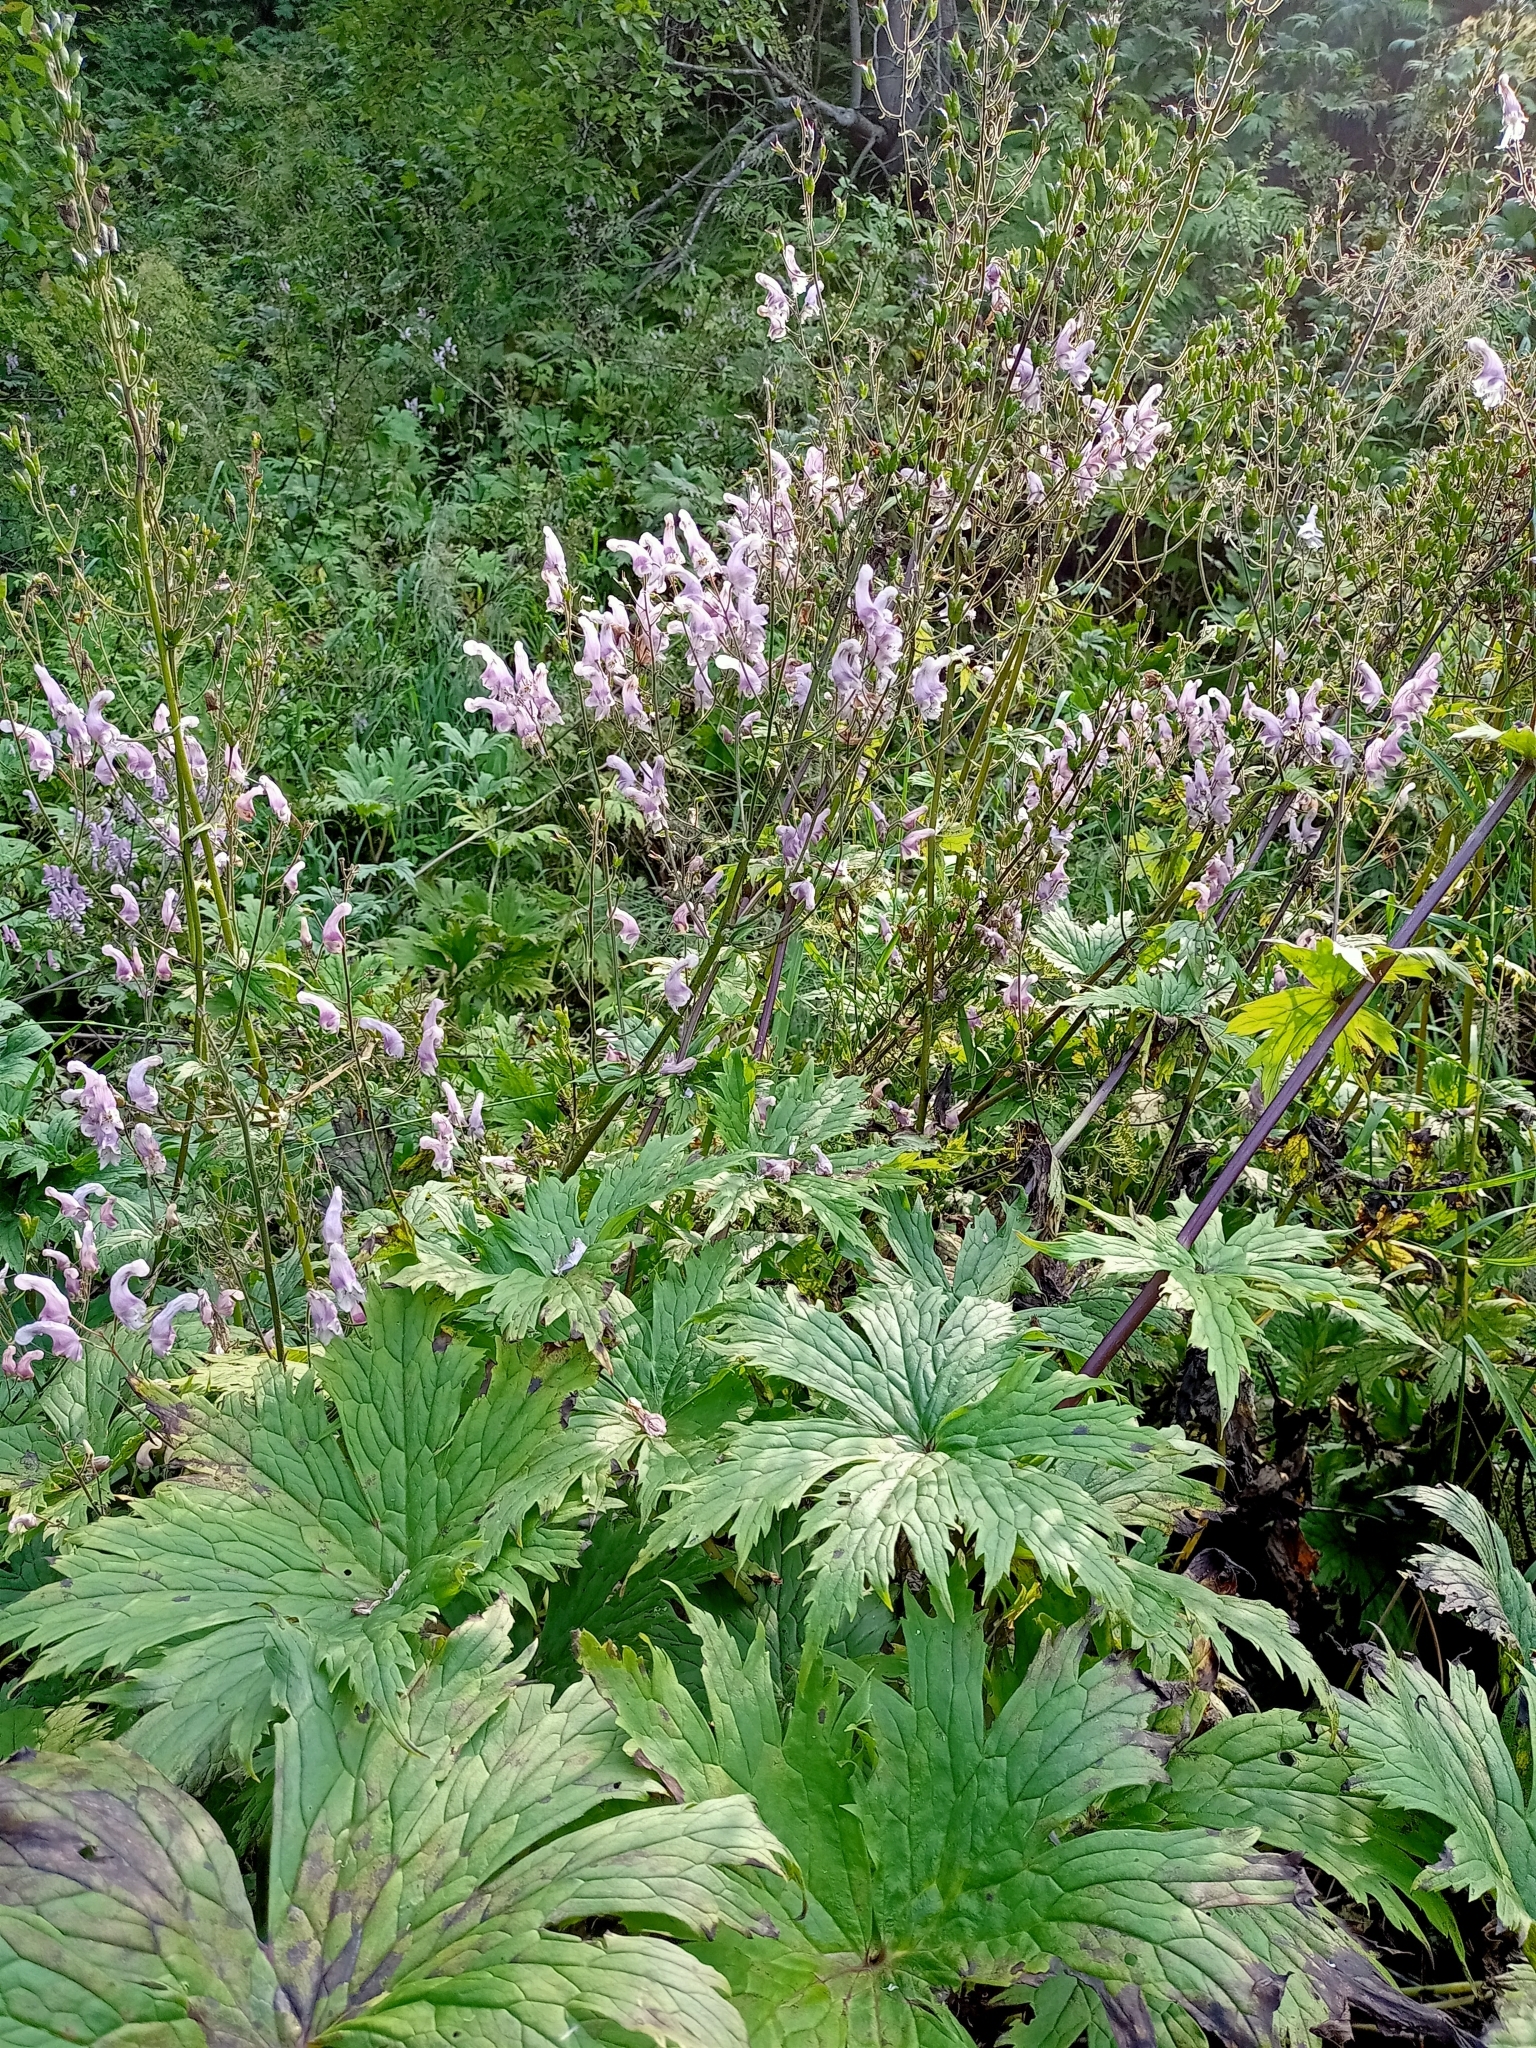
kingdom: Plantae
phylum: Tracheophyta
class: Magnoliopsida
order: Ranunculales
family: Ranunculaceae
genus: Aconitum
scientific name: Aconitum septentrionale
